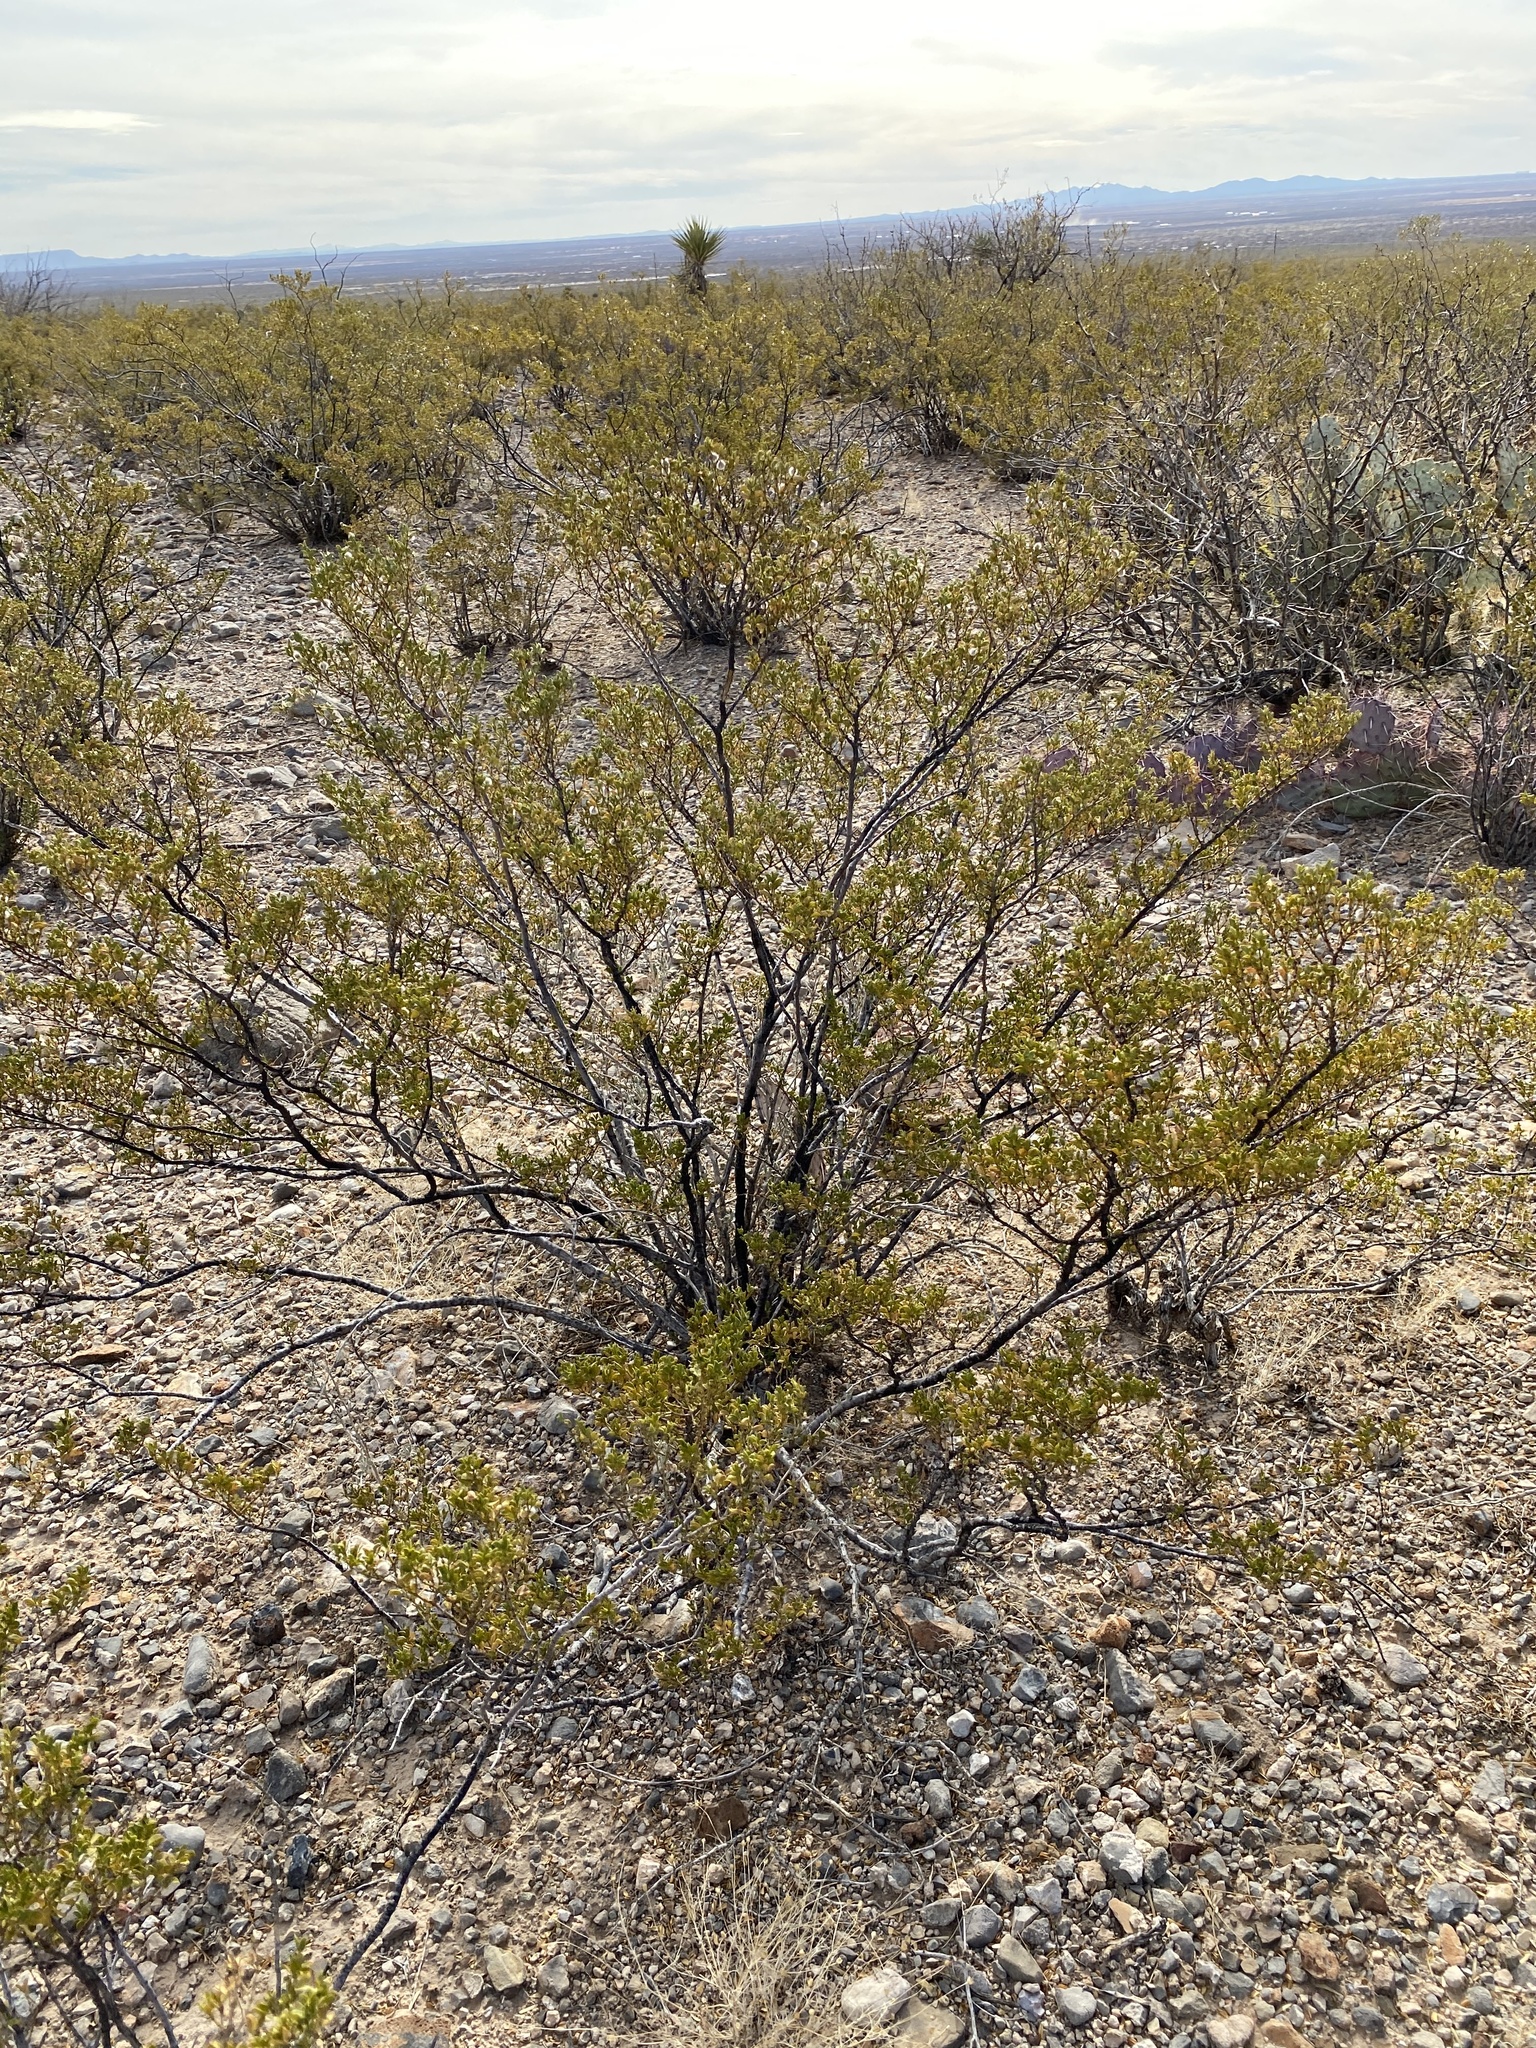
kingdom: Plantae
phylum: Tracheophyta
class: Magnoliopsida
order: Zygophyllales
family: Zygophyllaceae
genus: Larrea
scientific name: Larrea tridentata
